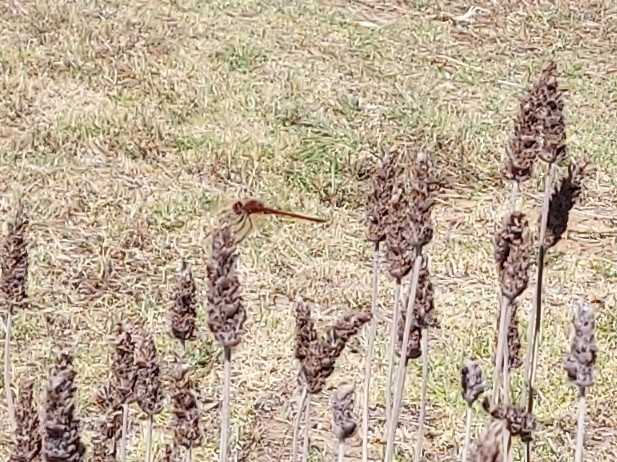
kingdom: Animalia
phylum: Arthropoda
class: Insecta
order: Odonata
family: Libellulidae
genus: Trithemis
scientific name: Trithemis arteriosa
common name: Red-veined dropwing
